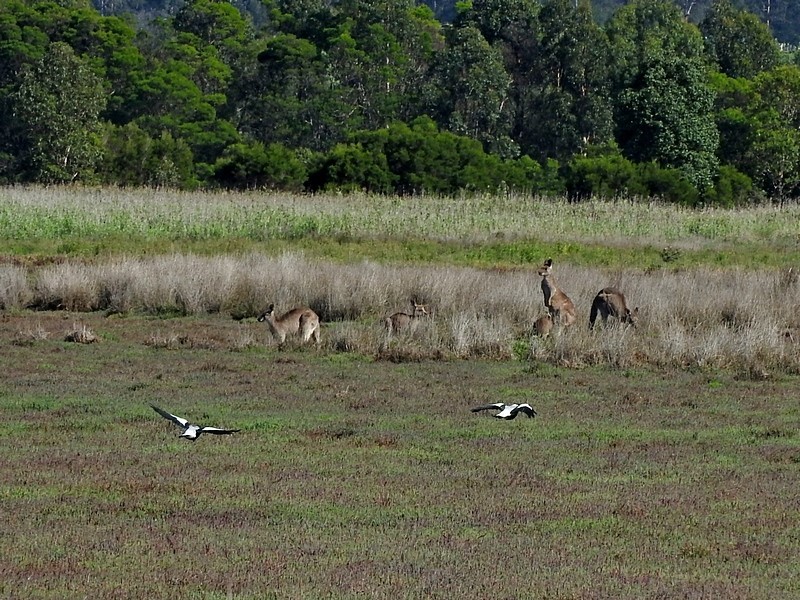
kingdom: Animalia
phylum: Chordata
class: Aves
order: Passeriformes
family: Cracticidae
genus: Gymnorhina
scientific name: Gymnorhina tibicen
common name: Australian magpie
